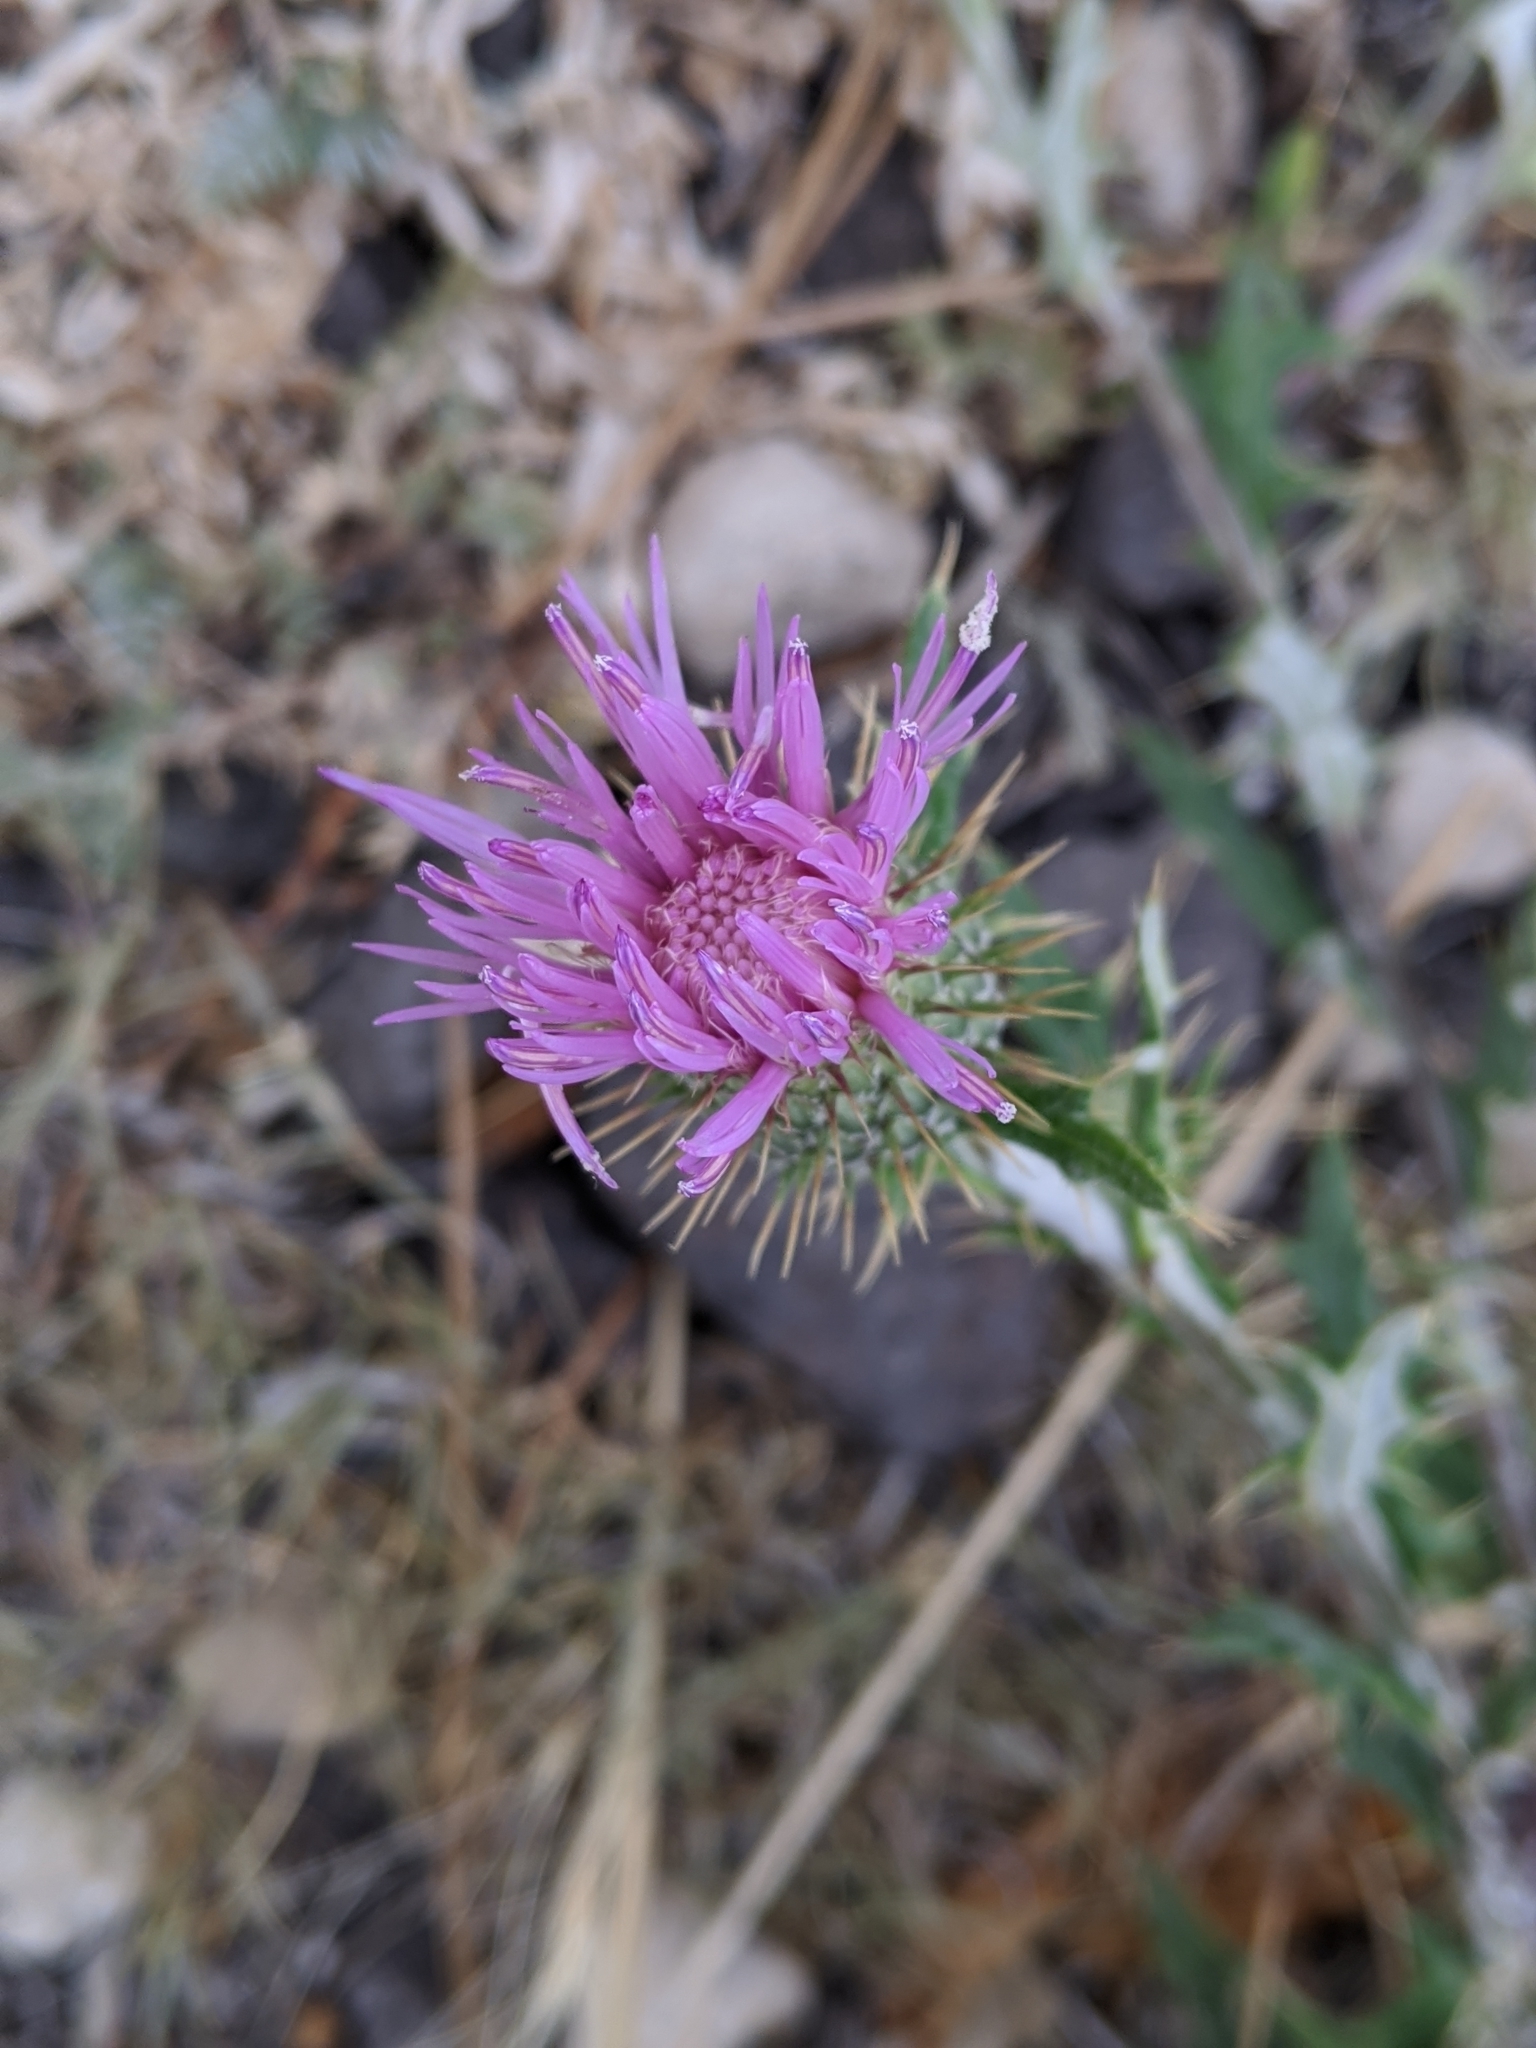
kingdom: Plantae
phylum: Tracheophyta
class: Magnoliopsida
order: Asterales
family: Asteraceae
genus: Cirsium
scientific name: Cirsium wheeleri
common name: Wheeler's thistle
